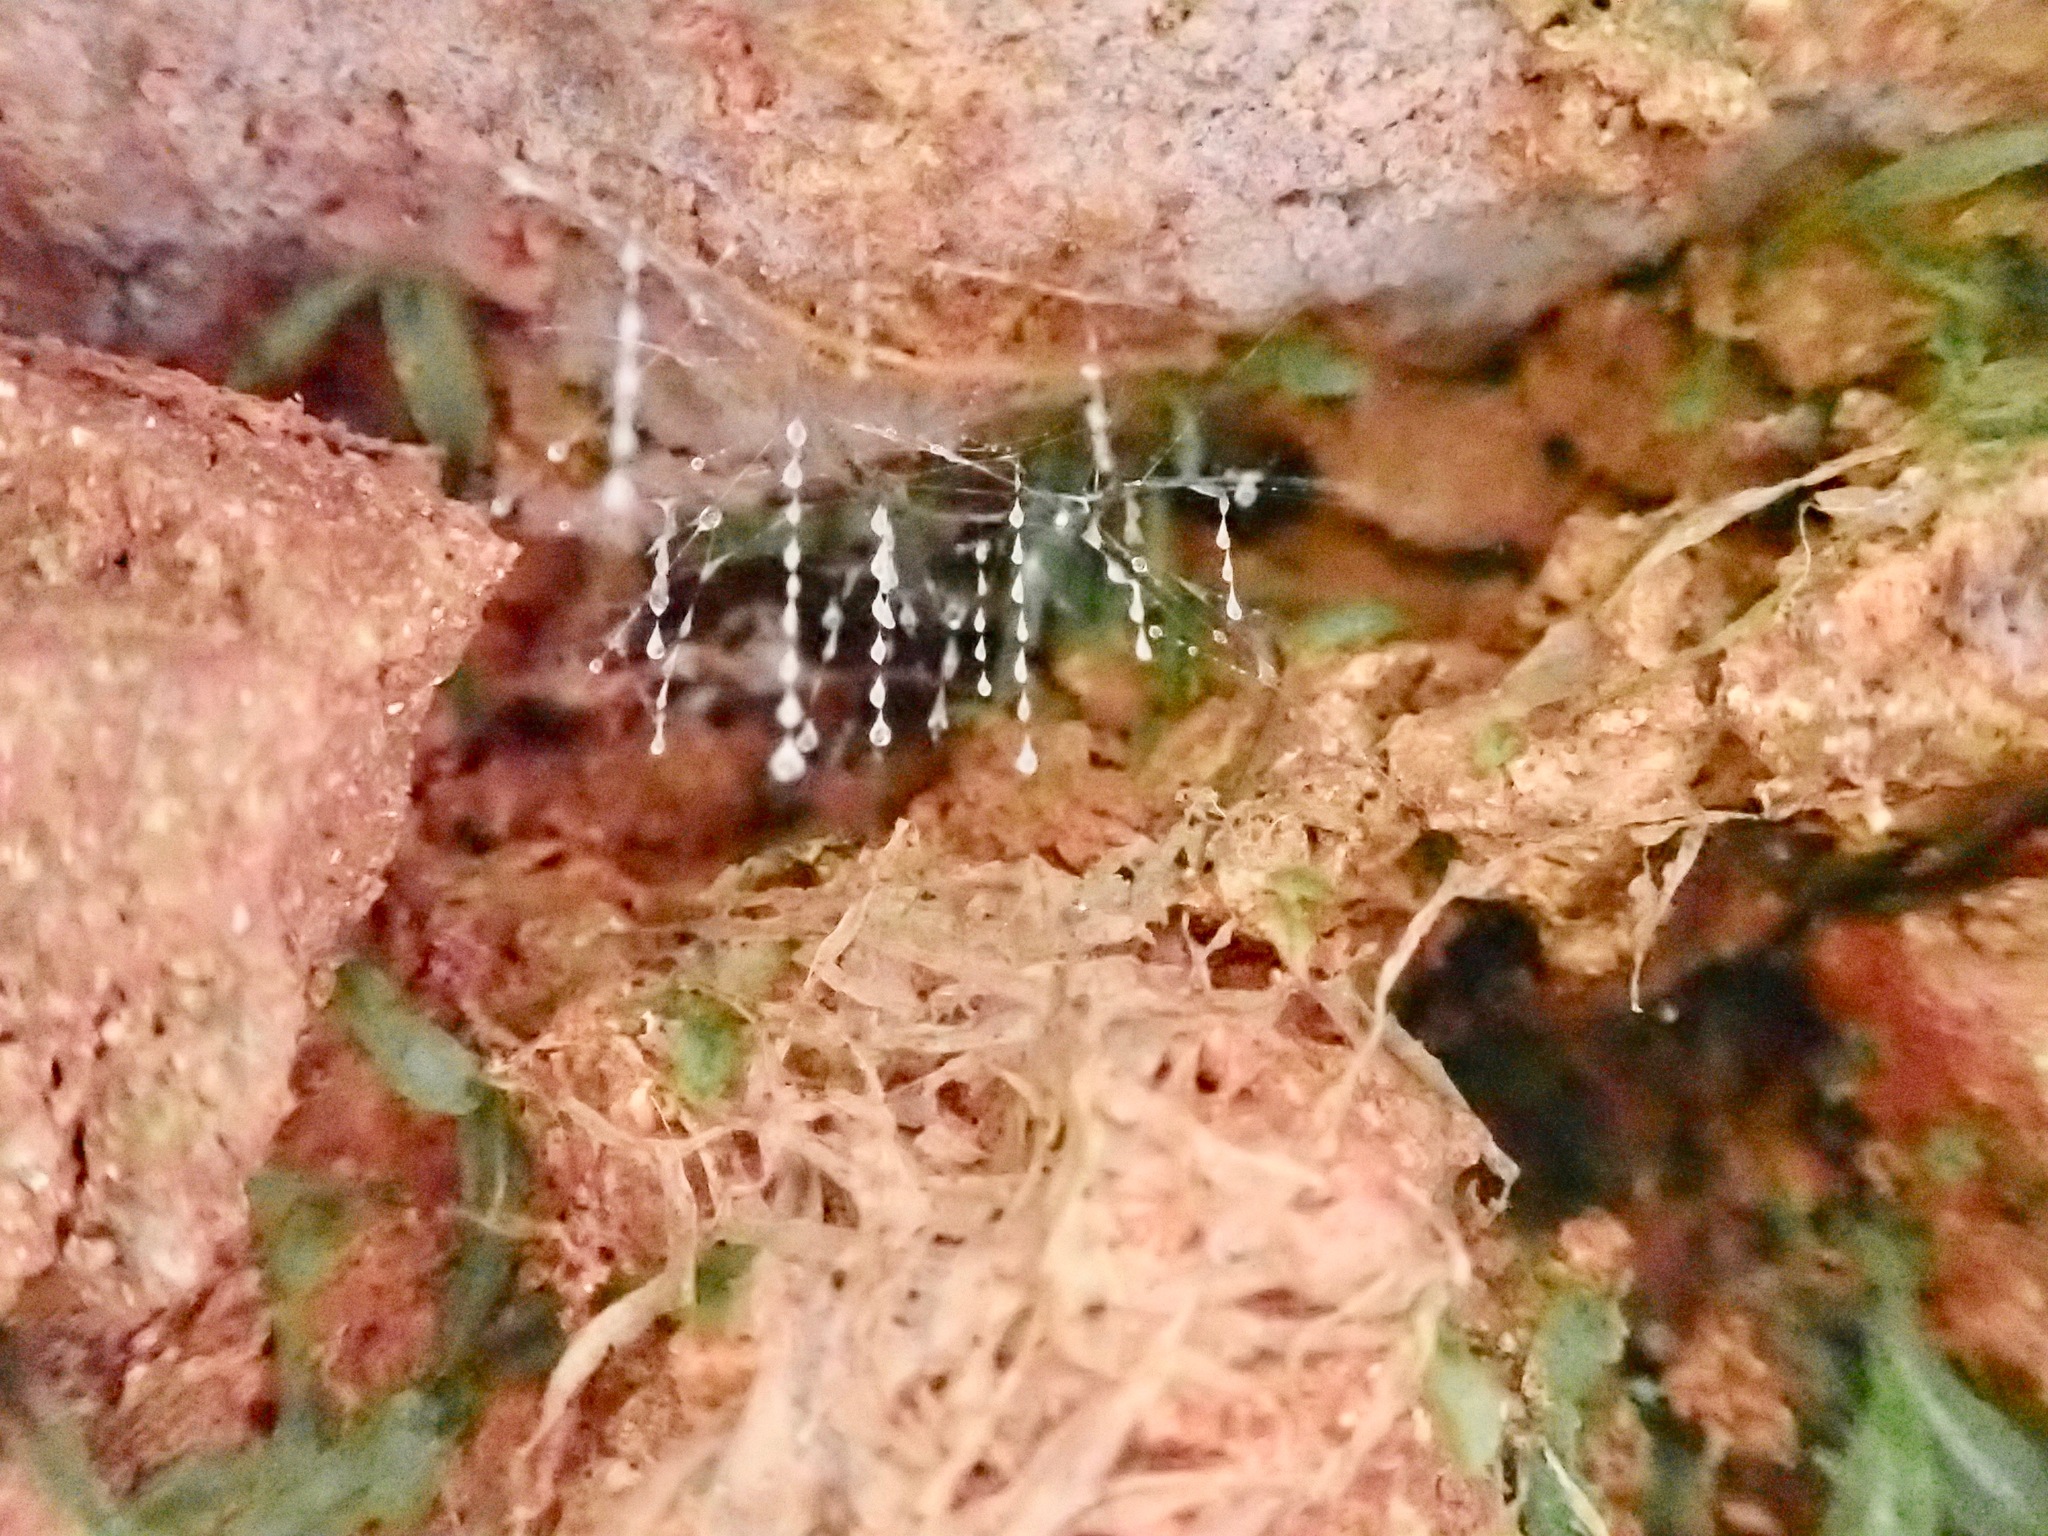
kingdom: Animalia
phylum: Arthropoda
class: Insecta
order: Diptera
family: Keroplatidae
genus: Arachnocampa
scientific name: Arachnocampa luminosa
